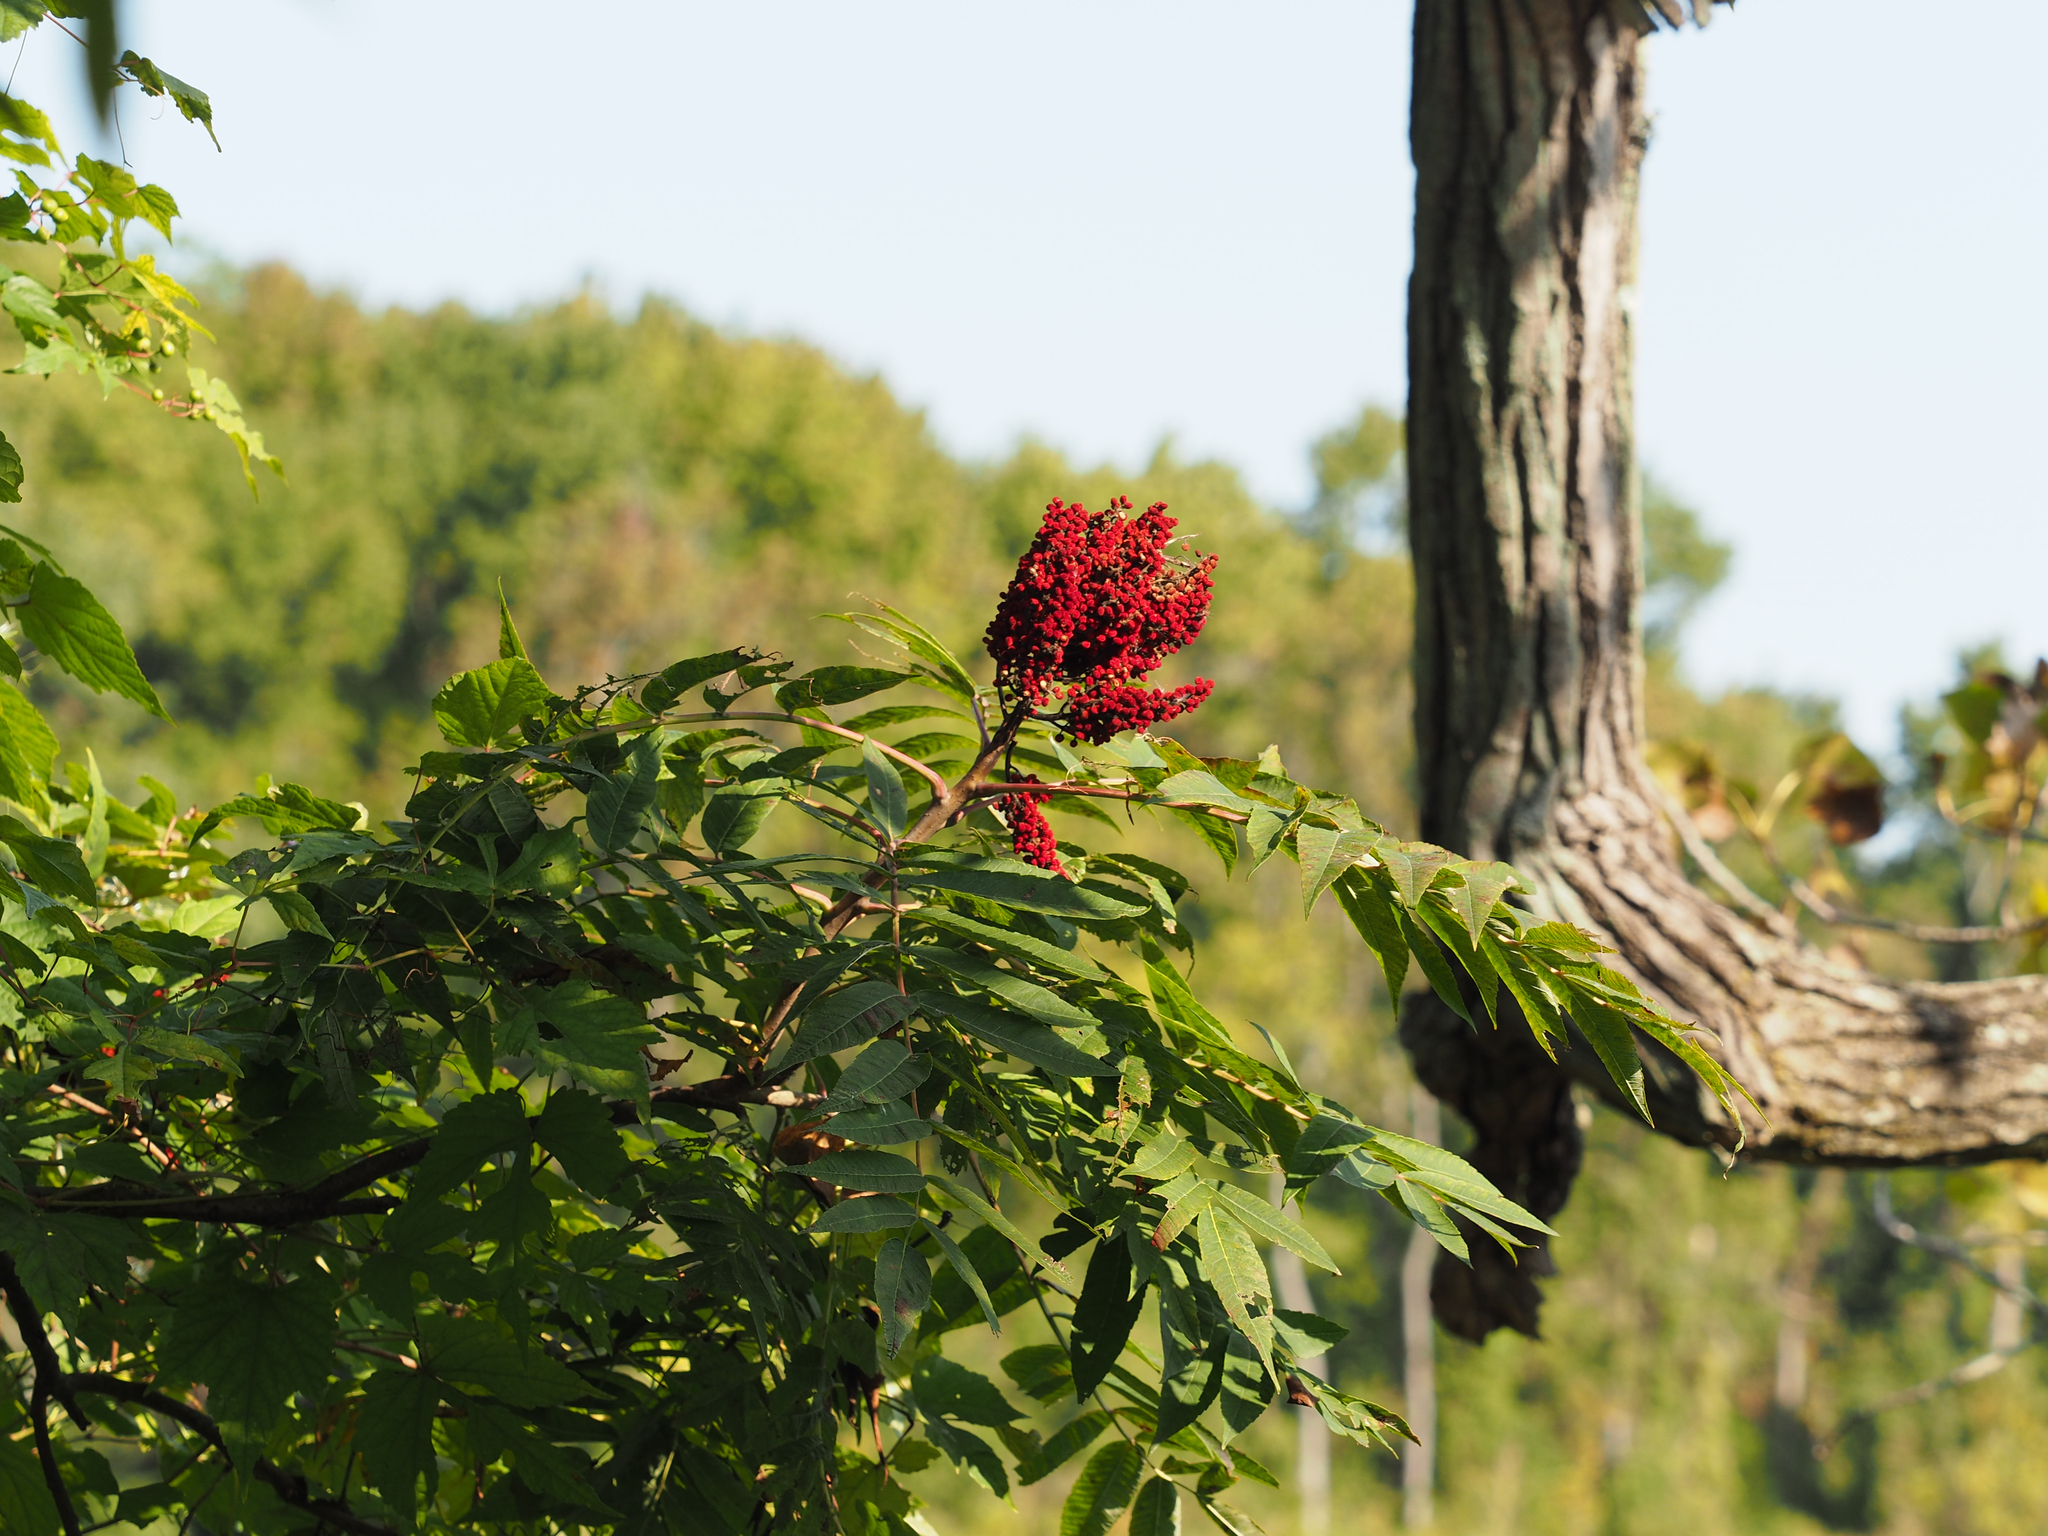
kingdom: Plantae
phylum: Tracheophyta
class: Magnoliopsida
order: Sapindales
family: Anacardiaceae
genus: Rhus
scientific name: Rhus glabra
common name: Scarlet sumac
